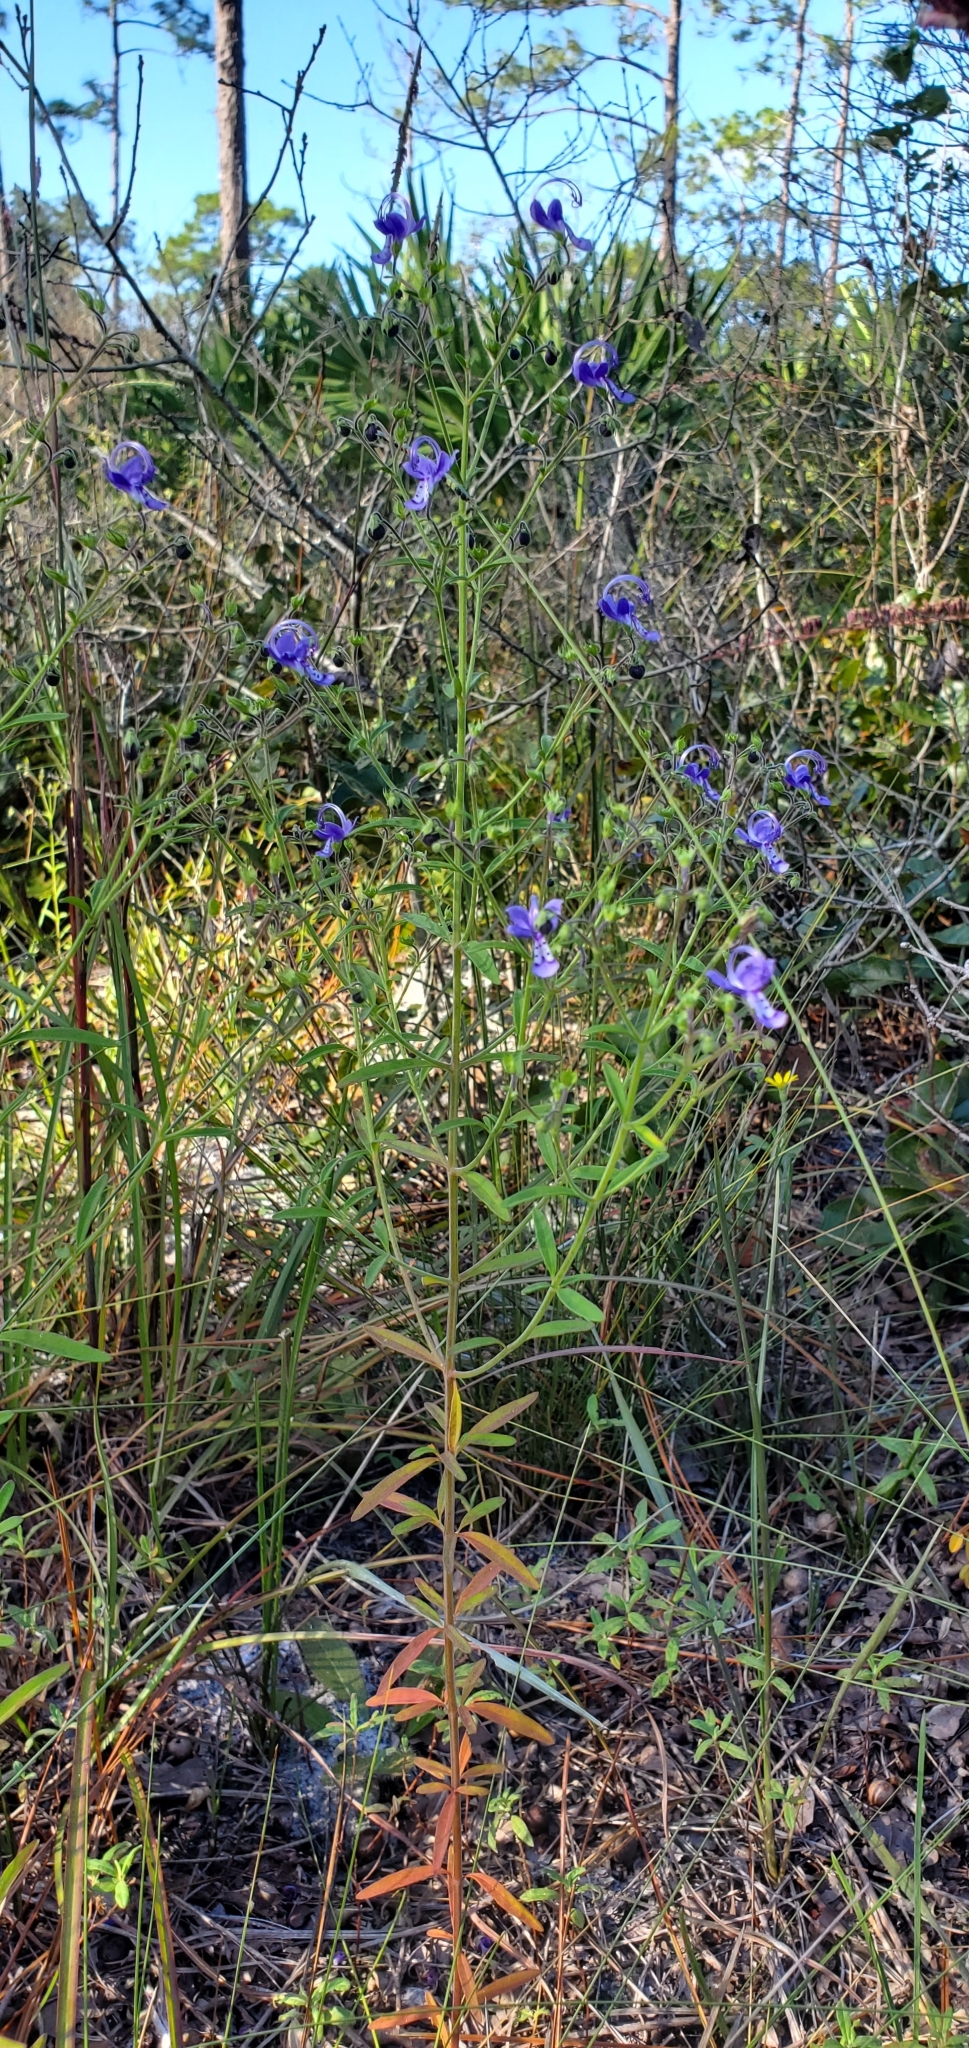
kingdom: Plantae
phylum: Tracheophyta
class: Magnoliopsida
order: Lamiales
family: Lamiaceae
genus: Trichostema
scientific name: Trichostema gracile
